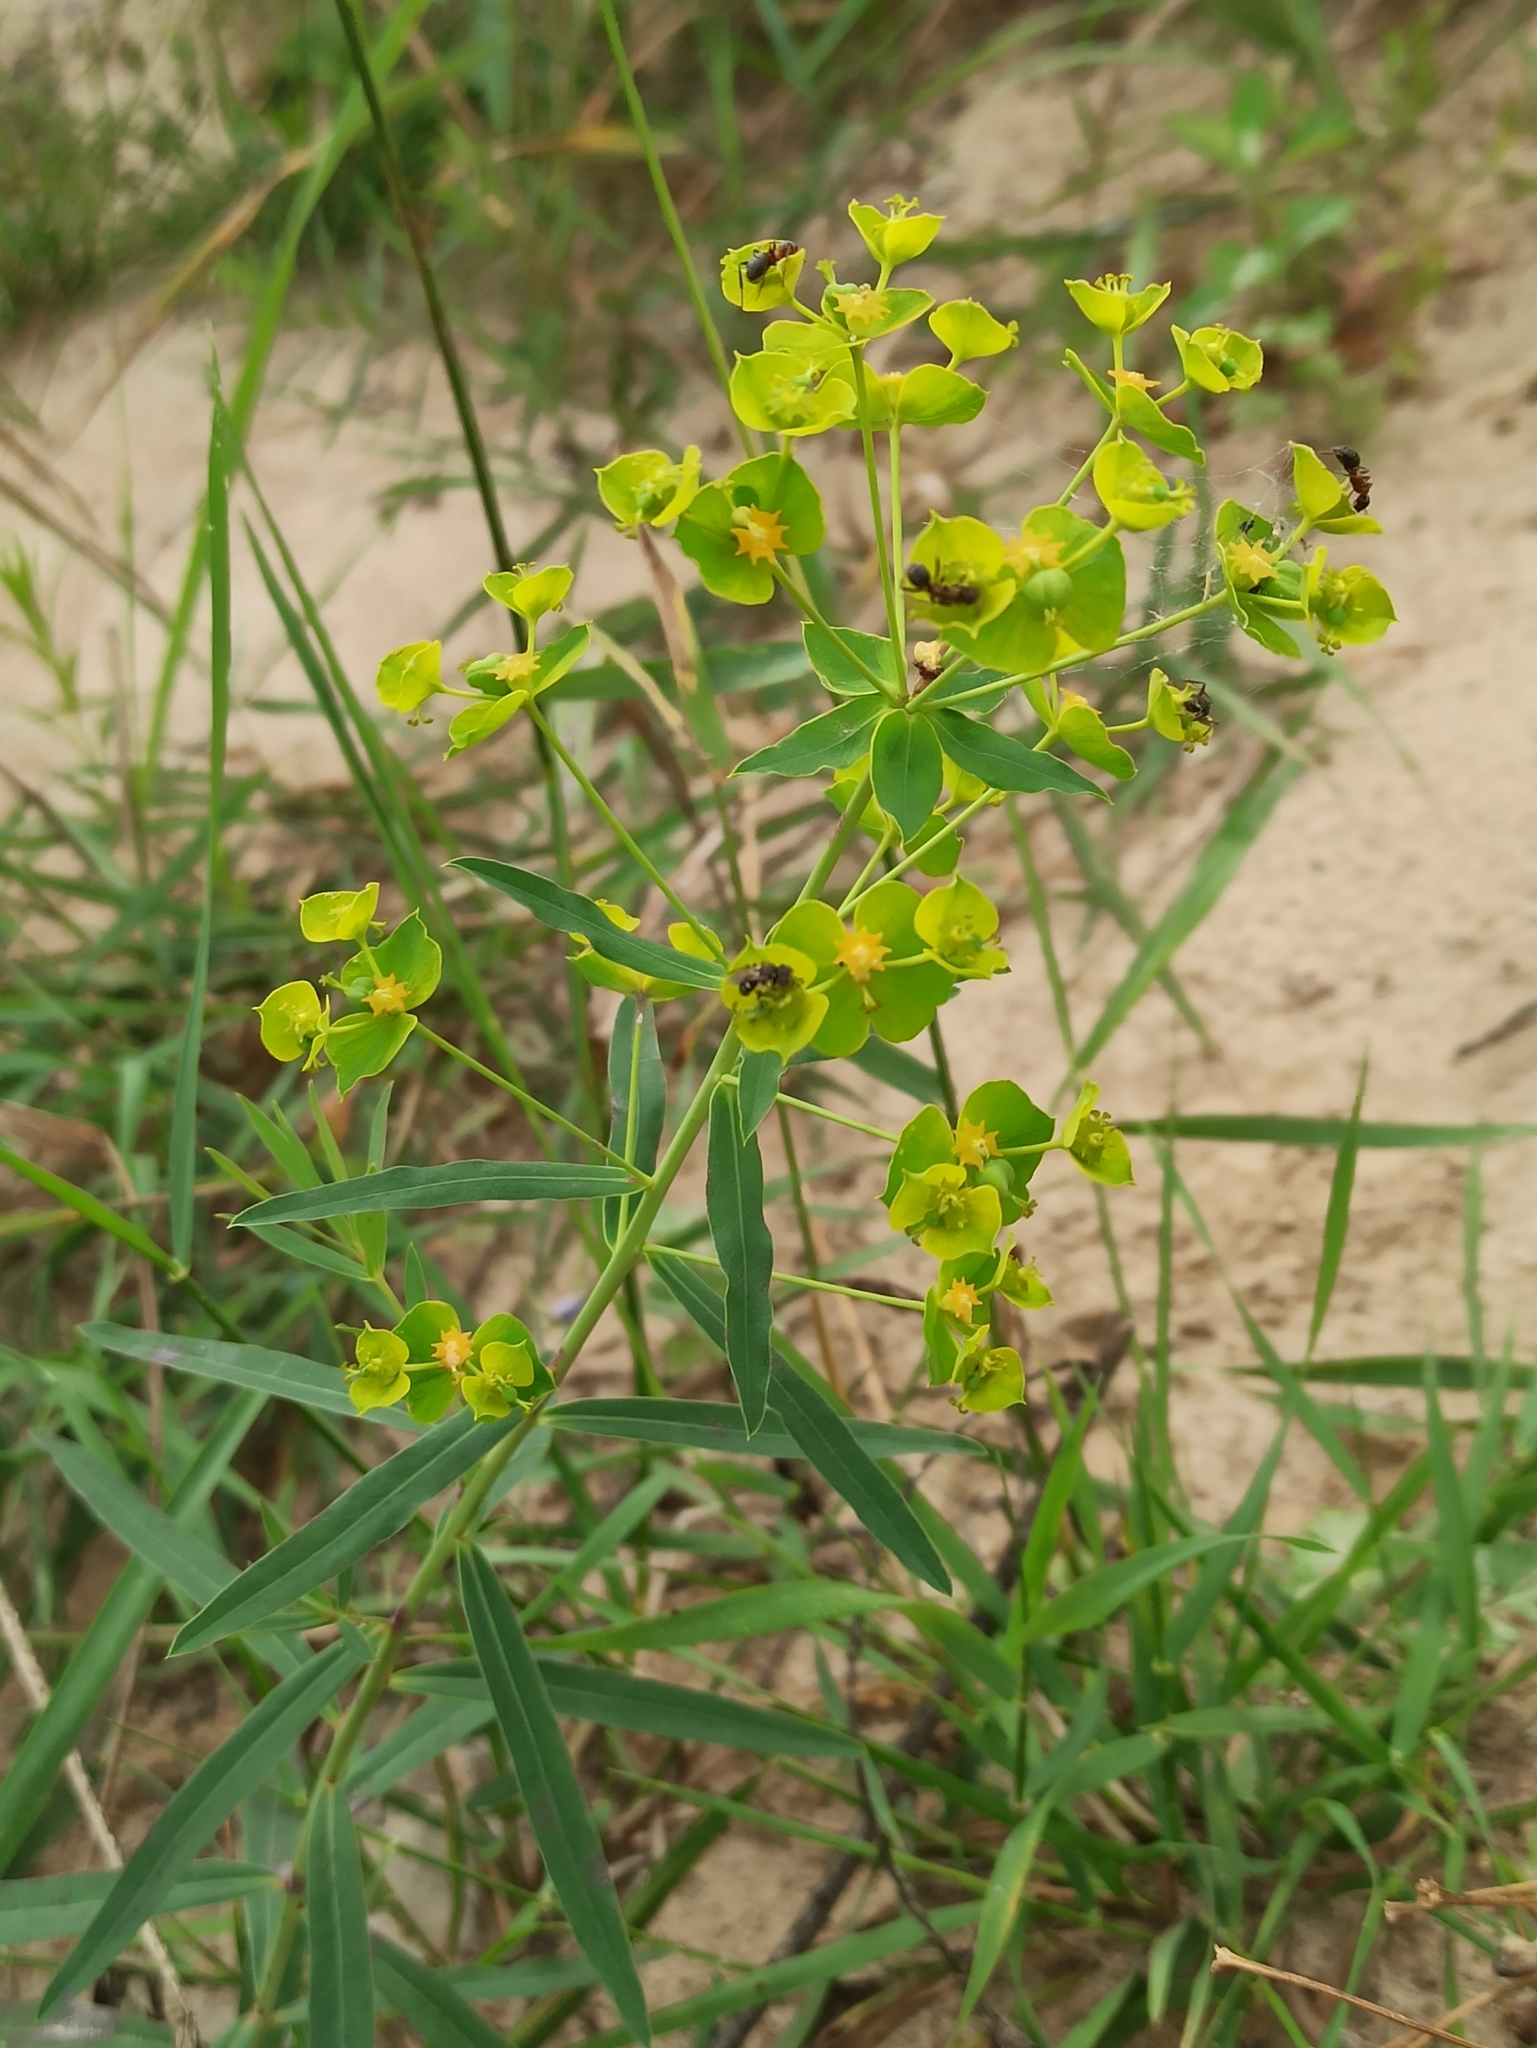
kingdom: Plantae
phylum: Tracheophyta
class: Magnoliopsida
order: Malpighiales
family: Euphorbiaceae
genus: Euphorbia
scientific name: Euphorbia virgata
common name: Leafy spurge
